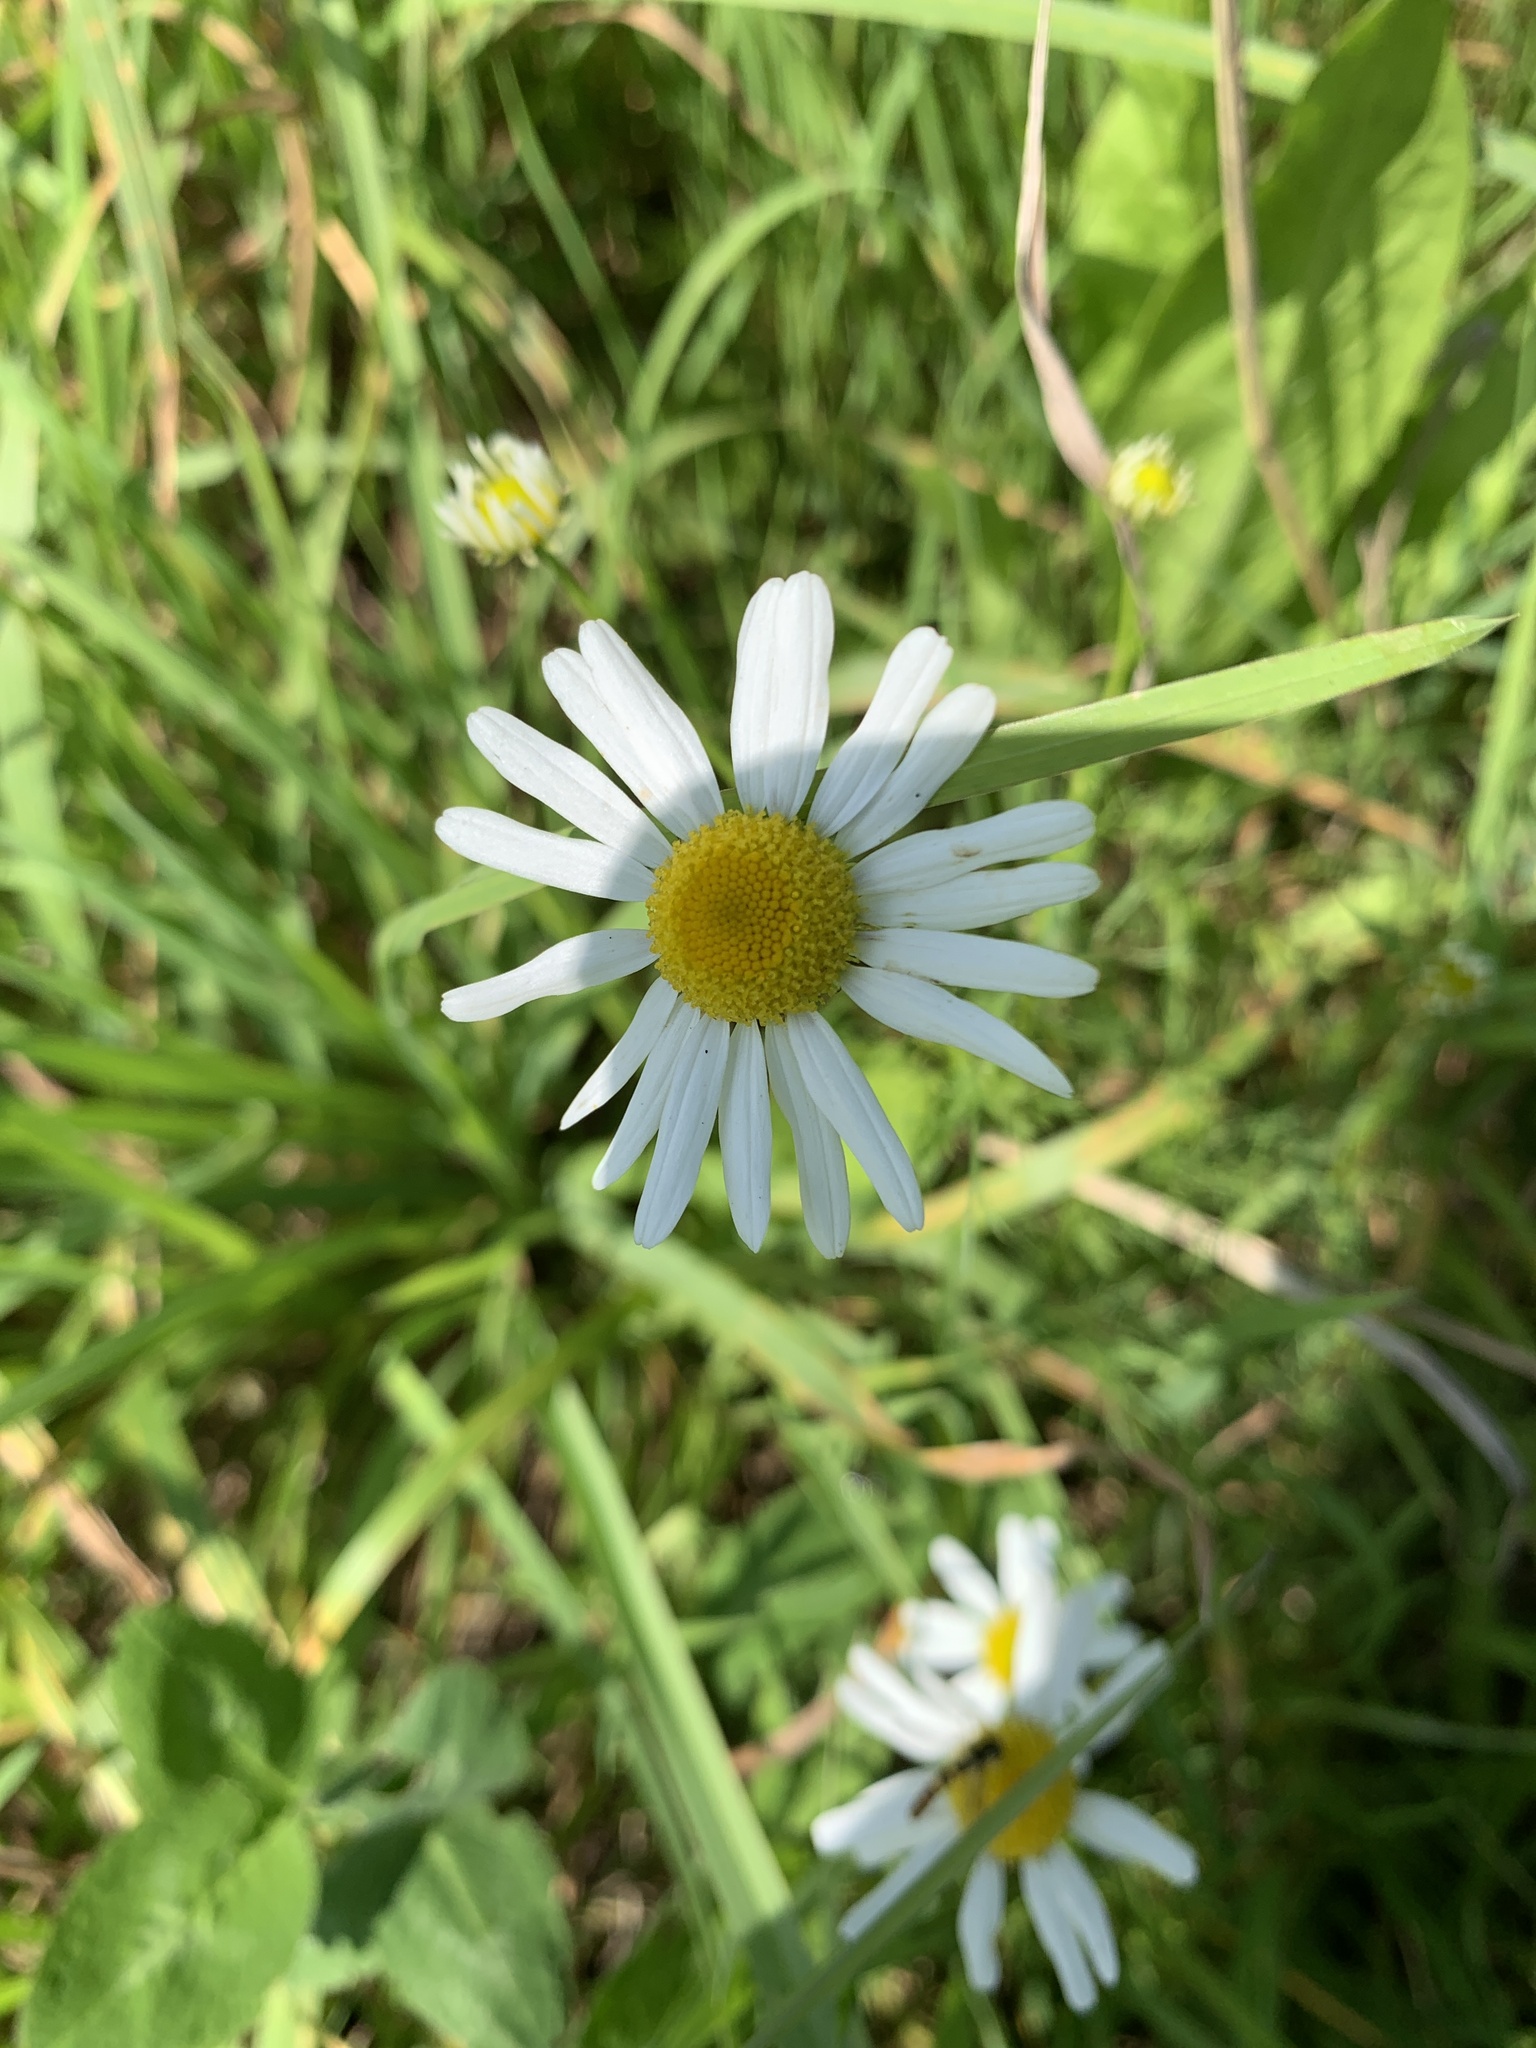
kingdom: Plantae
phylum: Tracheophyta
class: Magnoliopsida
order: Asterales
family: Asteraceae
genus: Tripleurospermum
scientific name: Tripleurospermum inodorum
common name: Scentless mayweed
